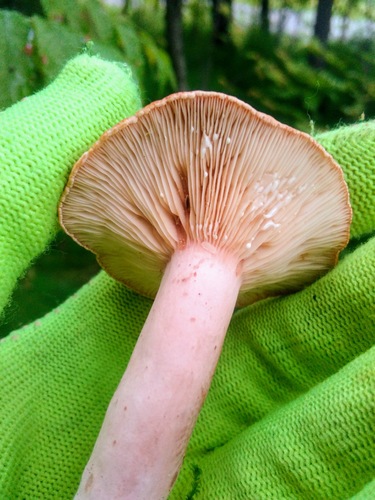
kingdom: Fungi
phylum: Basidiomycota
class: Agaricomycetes
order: Russulales
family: Russulaceae
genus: Lactarius
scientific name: Lactarius rufus
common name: Rufous milk-cap
